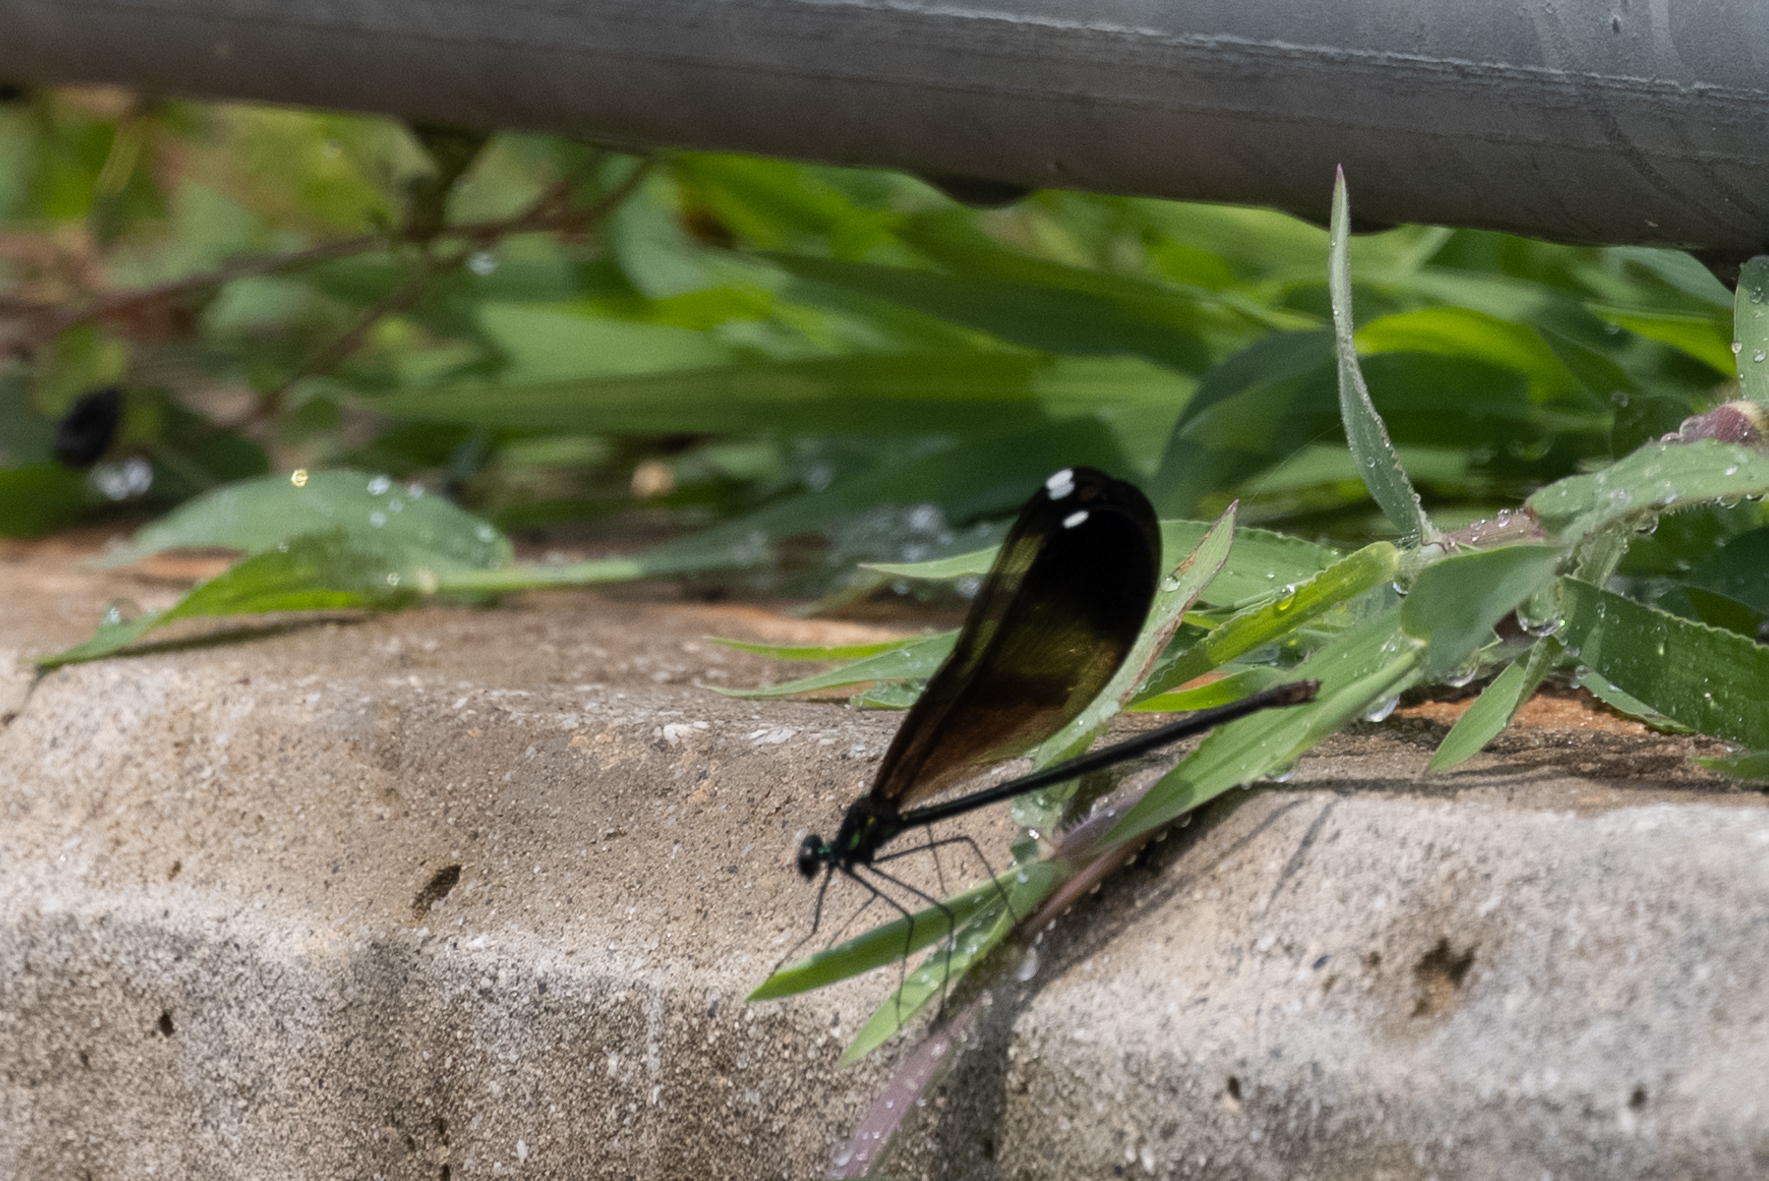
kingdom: Animalia
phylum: Arthropoda
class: Insecta
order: Odonata
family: Calopterygidae
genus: Calopteryx
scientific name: Calopteryx maculata
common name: Ebony jewelwing
